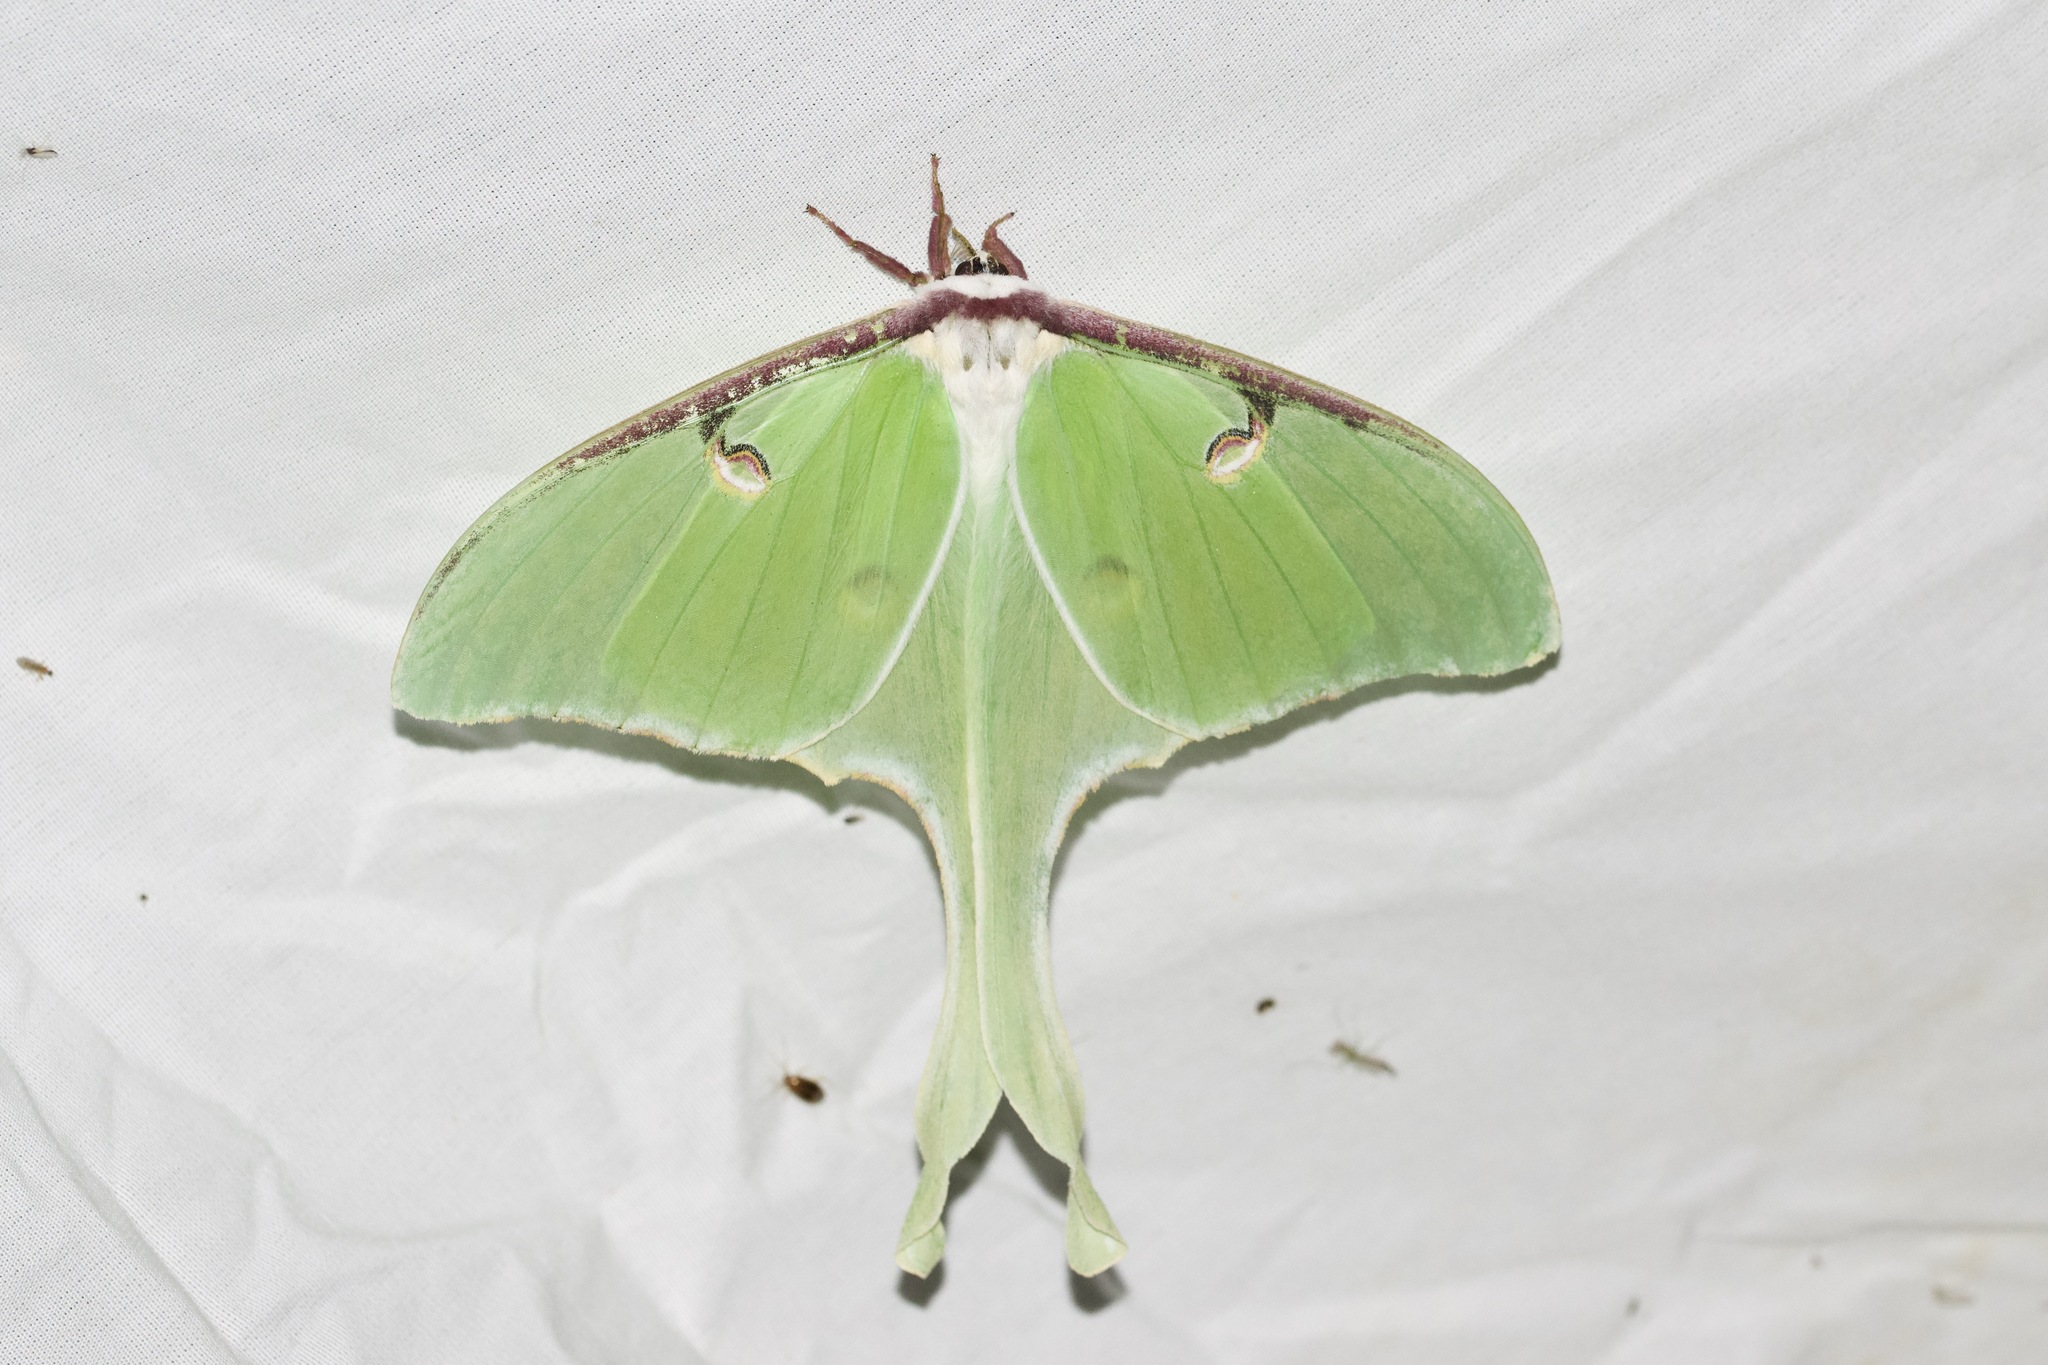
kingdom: Animalia
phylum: Arthropoda
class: Insecta
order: Lepidoptera
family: Saturniidae
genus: Actias
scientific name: Actias luna
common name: Luna moth
